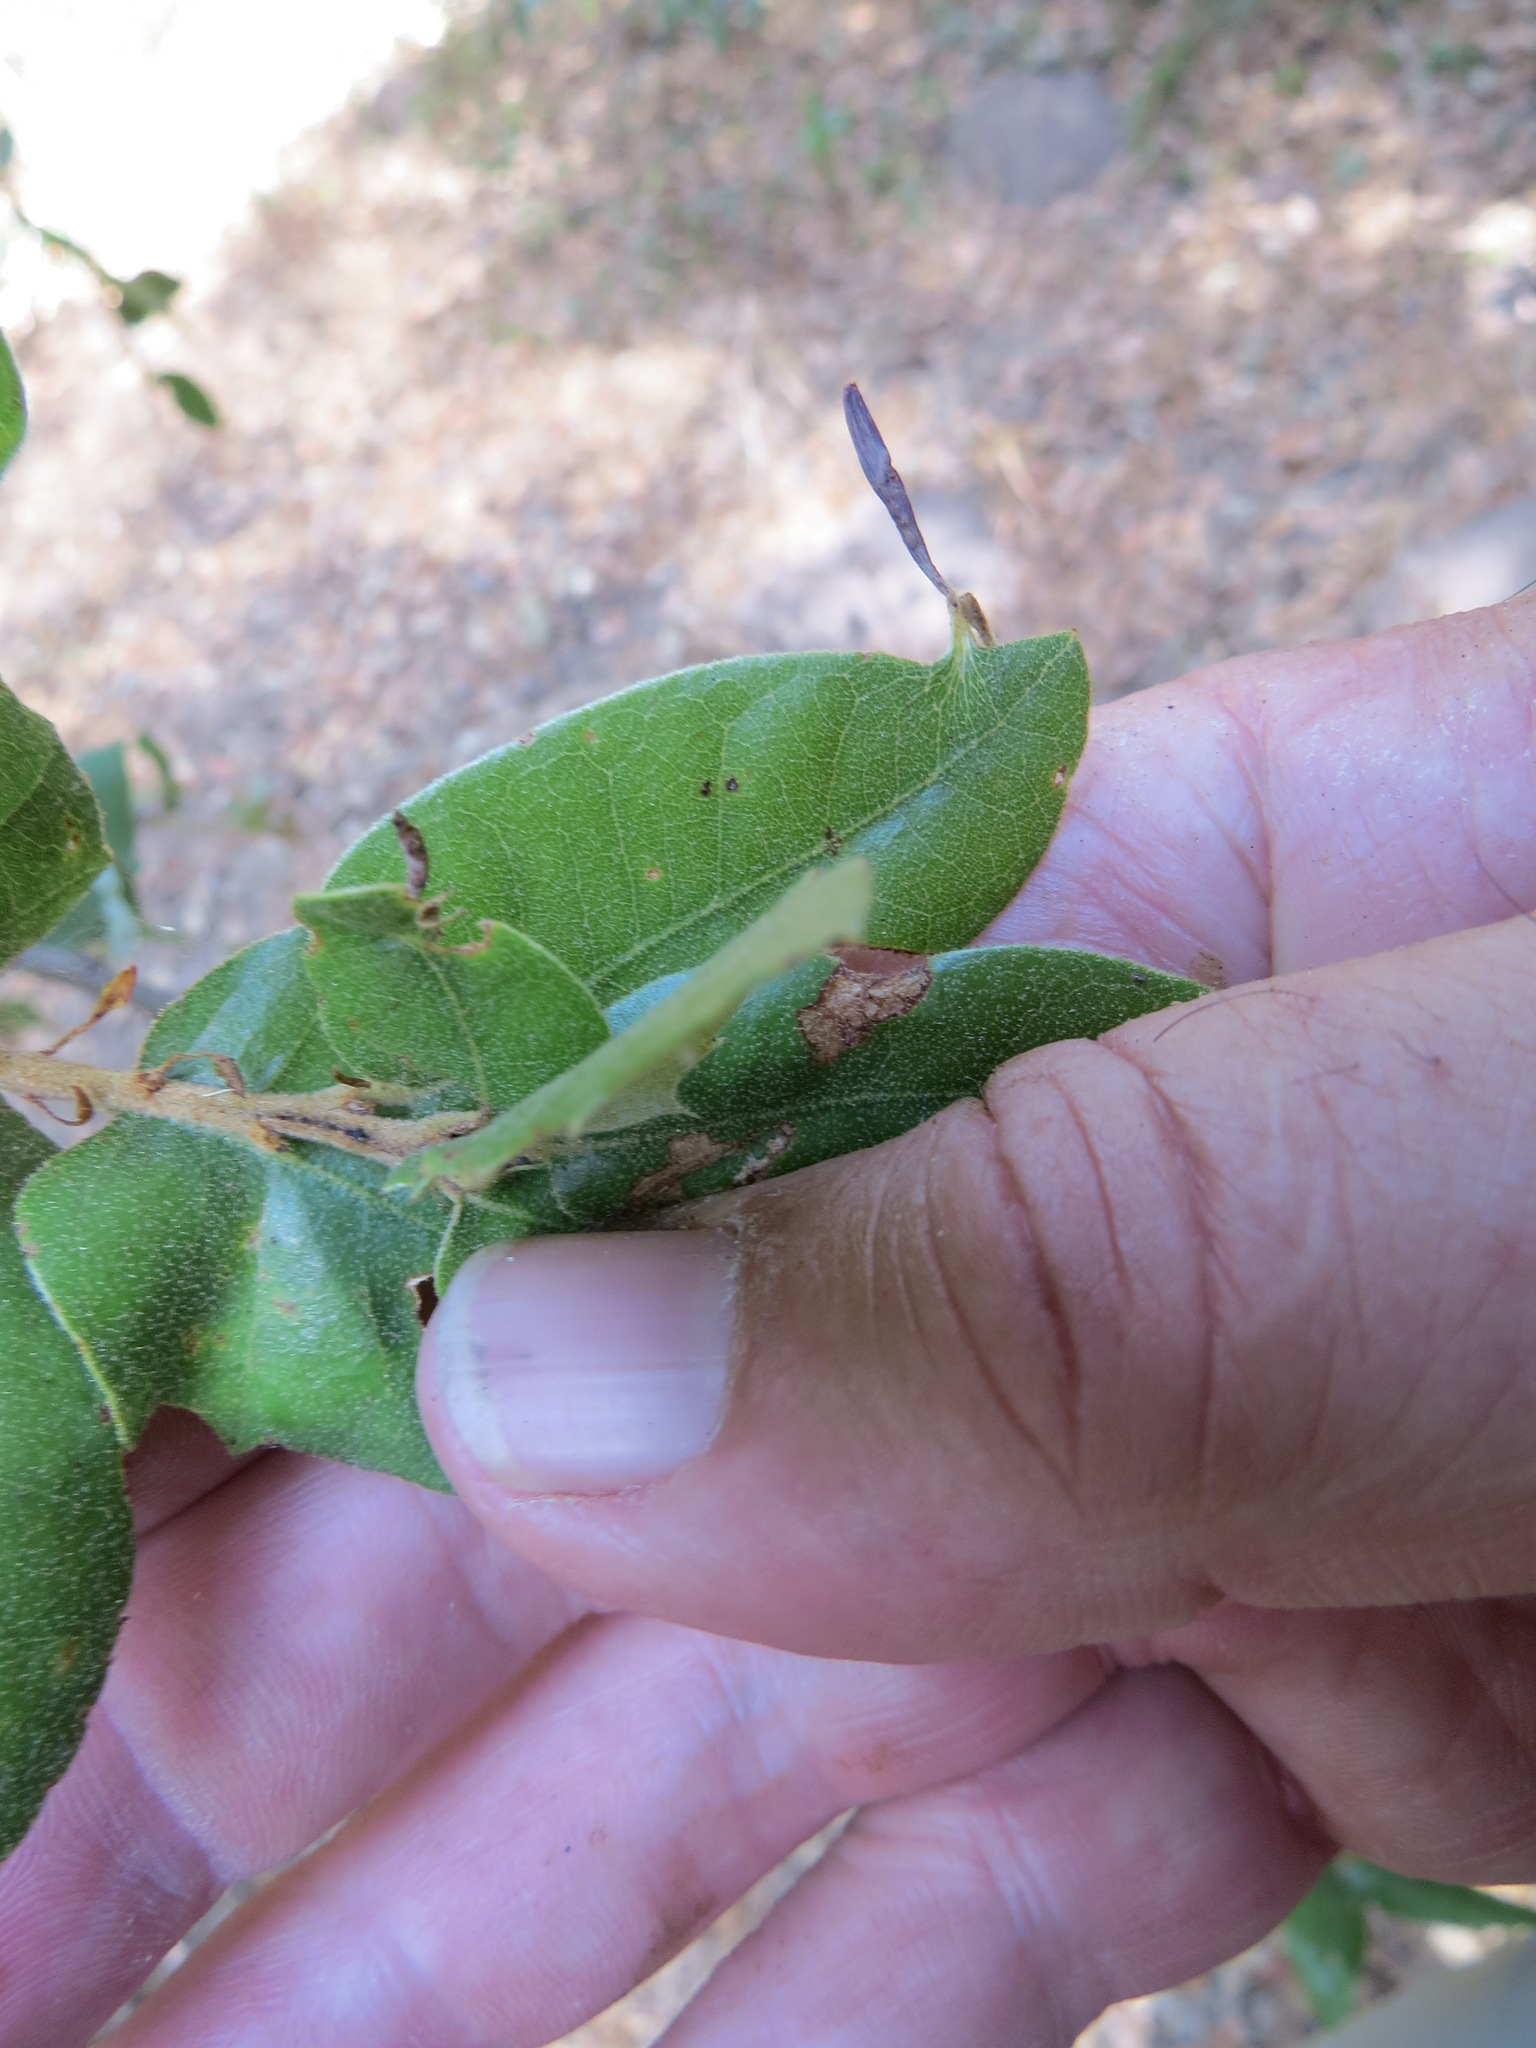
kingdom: Animalia
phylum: Arthropoda
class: Insecta
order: Hymenoptera
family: Cynipidae
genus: Heteroecus
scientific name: Heteroecus
